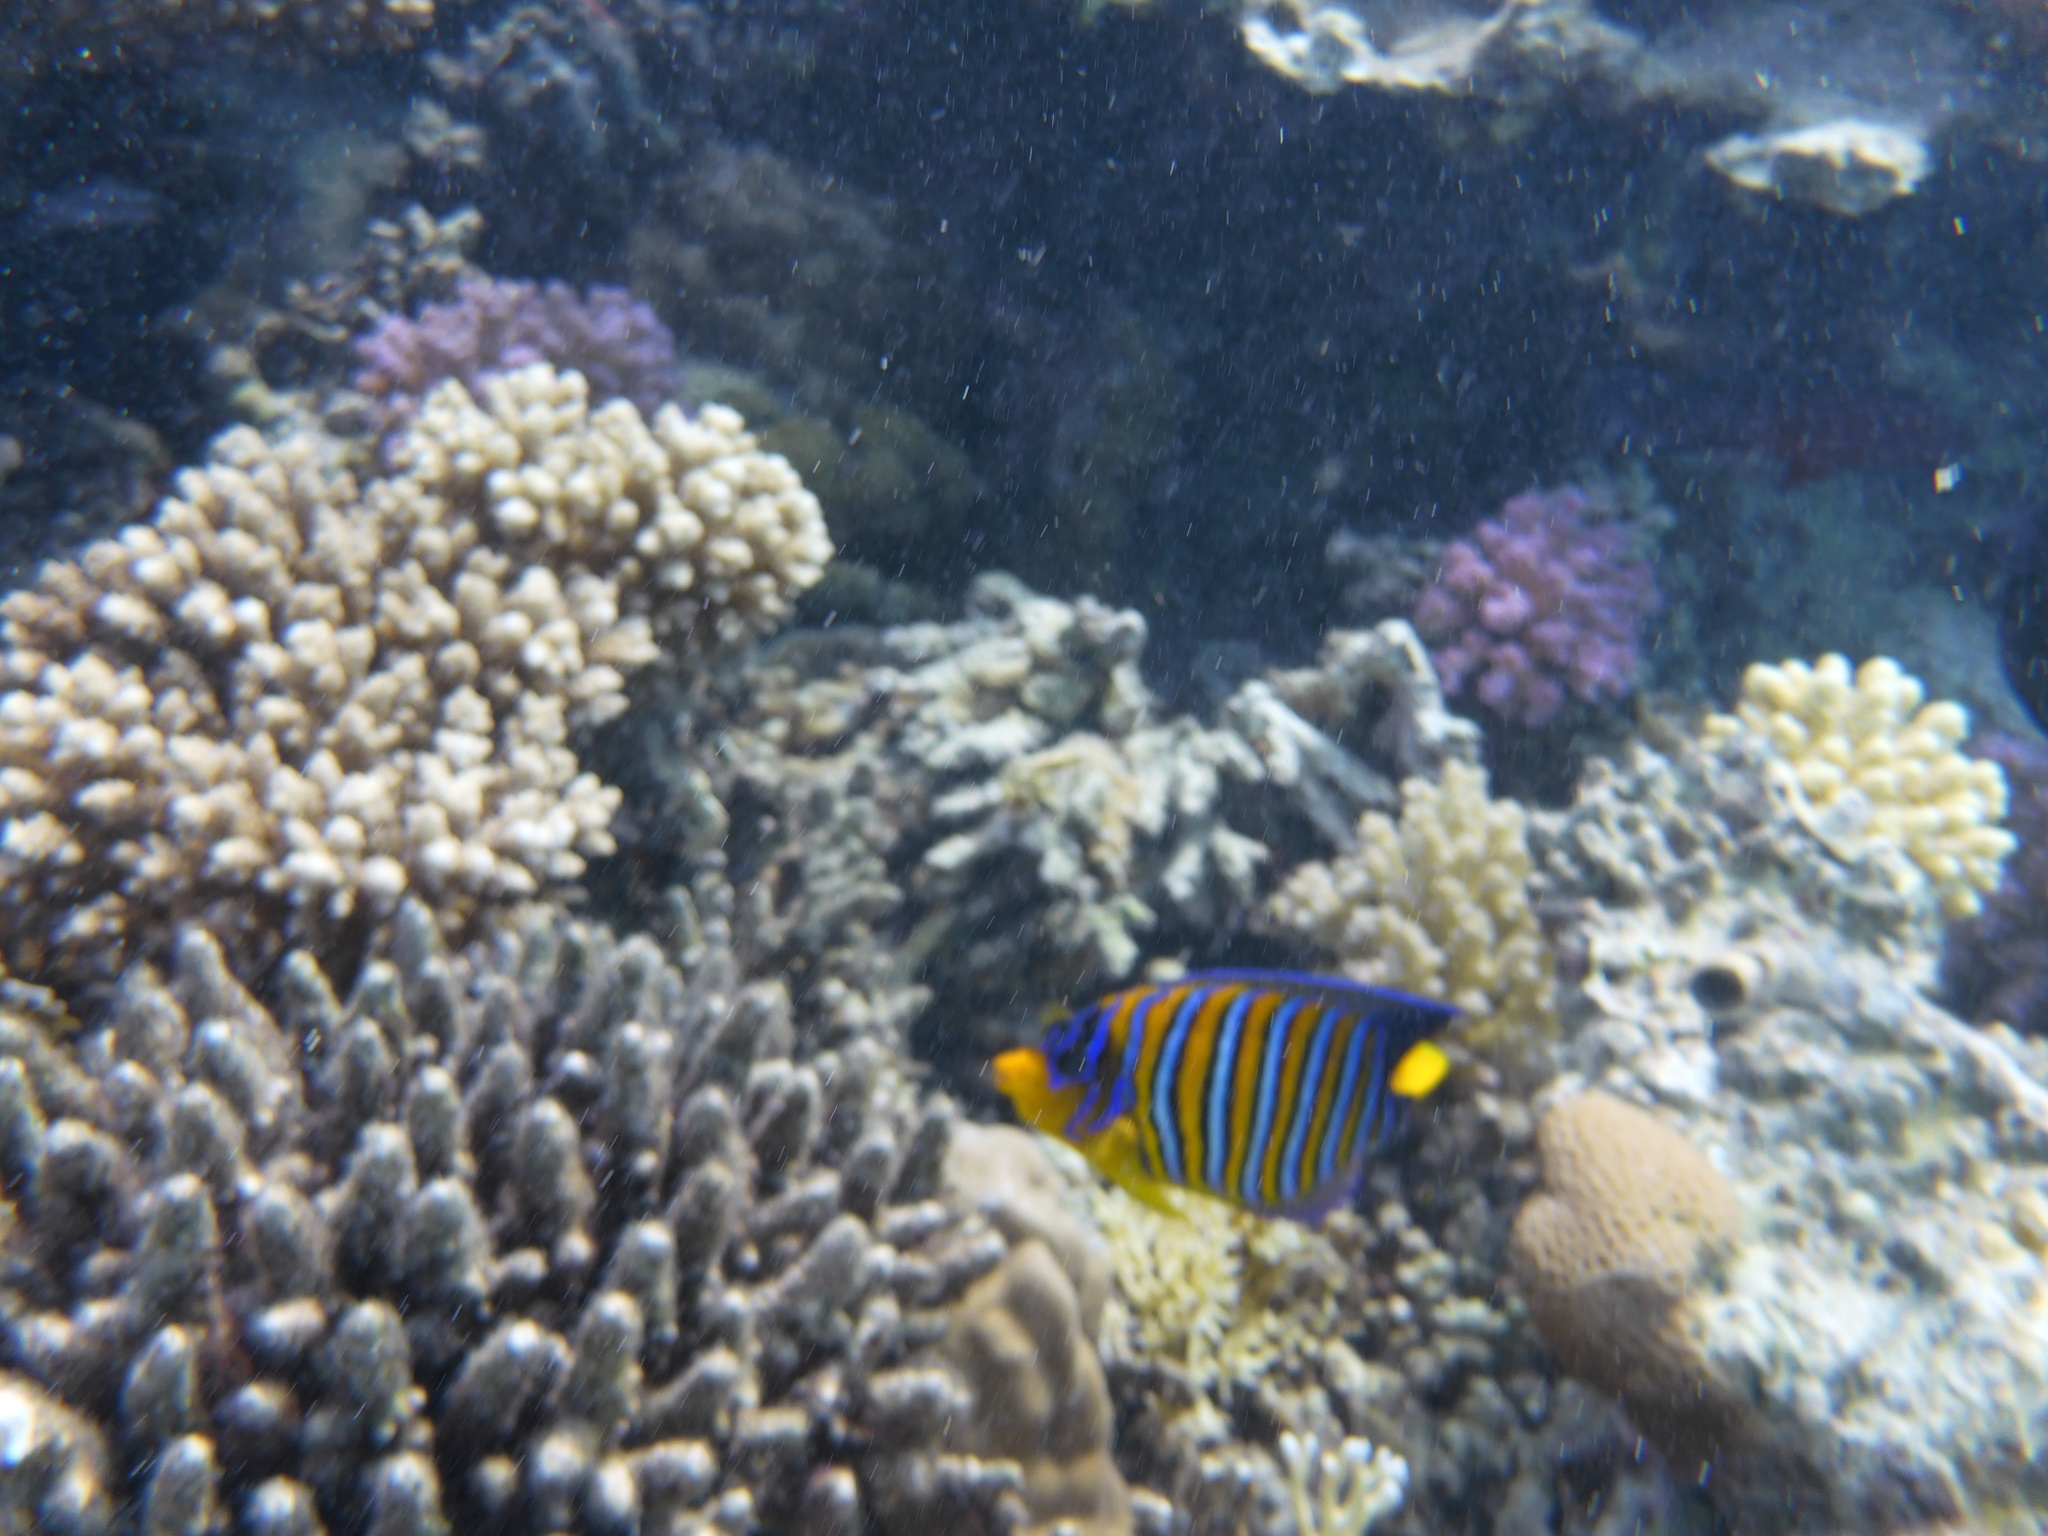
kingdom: Animalia
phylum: Chordata
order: Perciformes
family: Pomacanthidae
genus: Pygoplites
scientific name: Pygoplites diacanthus
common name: Regal angelfish
